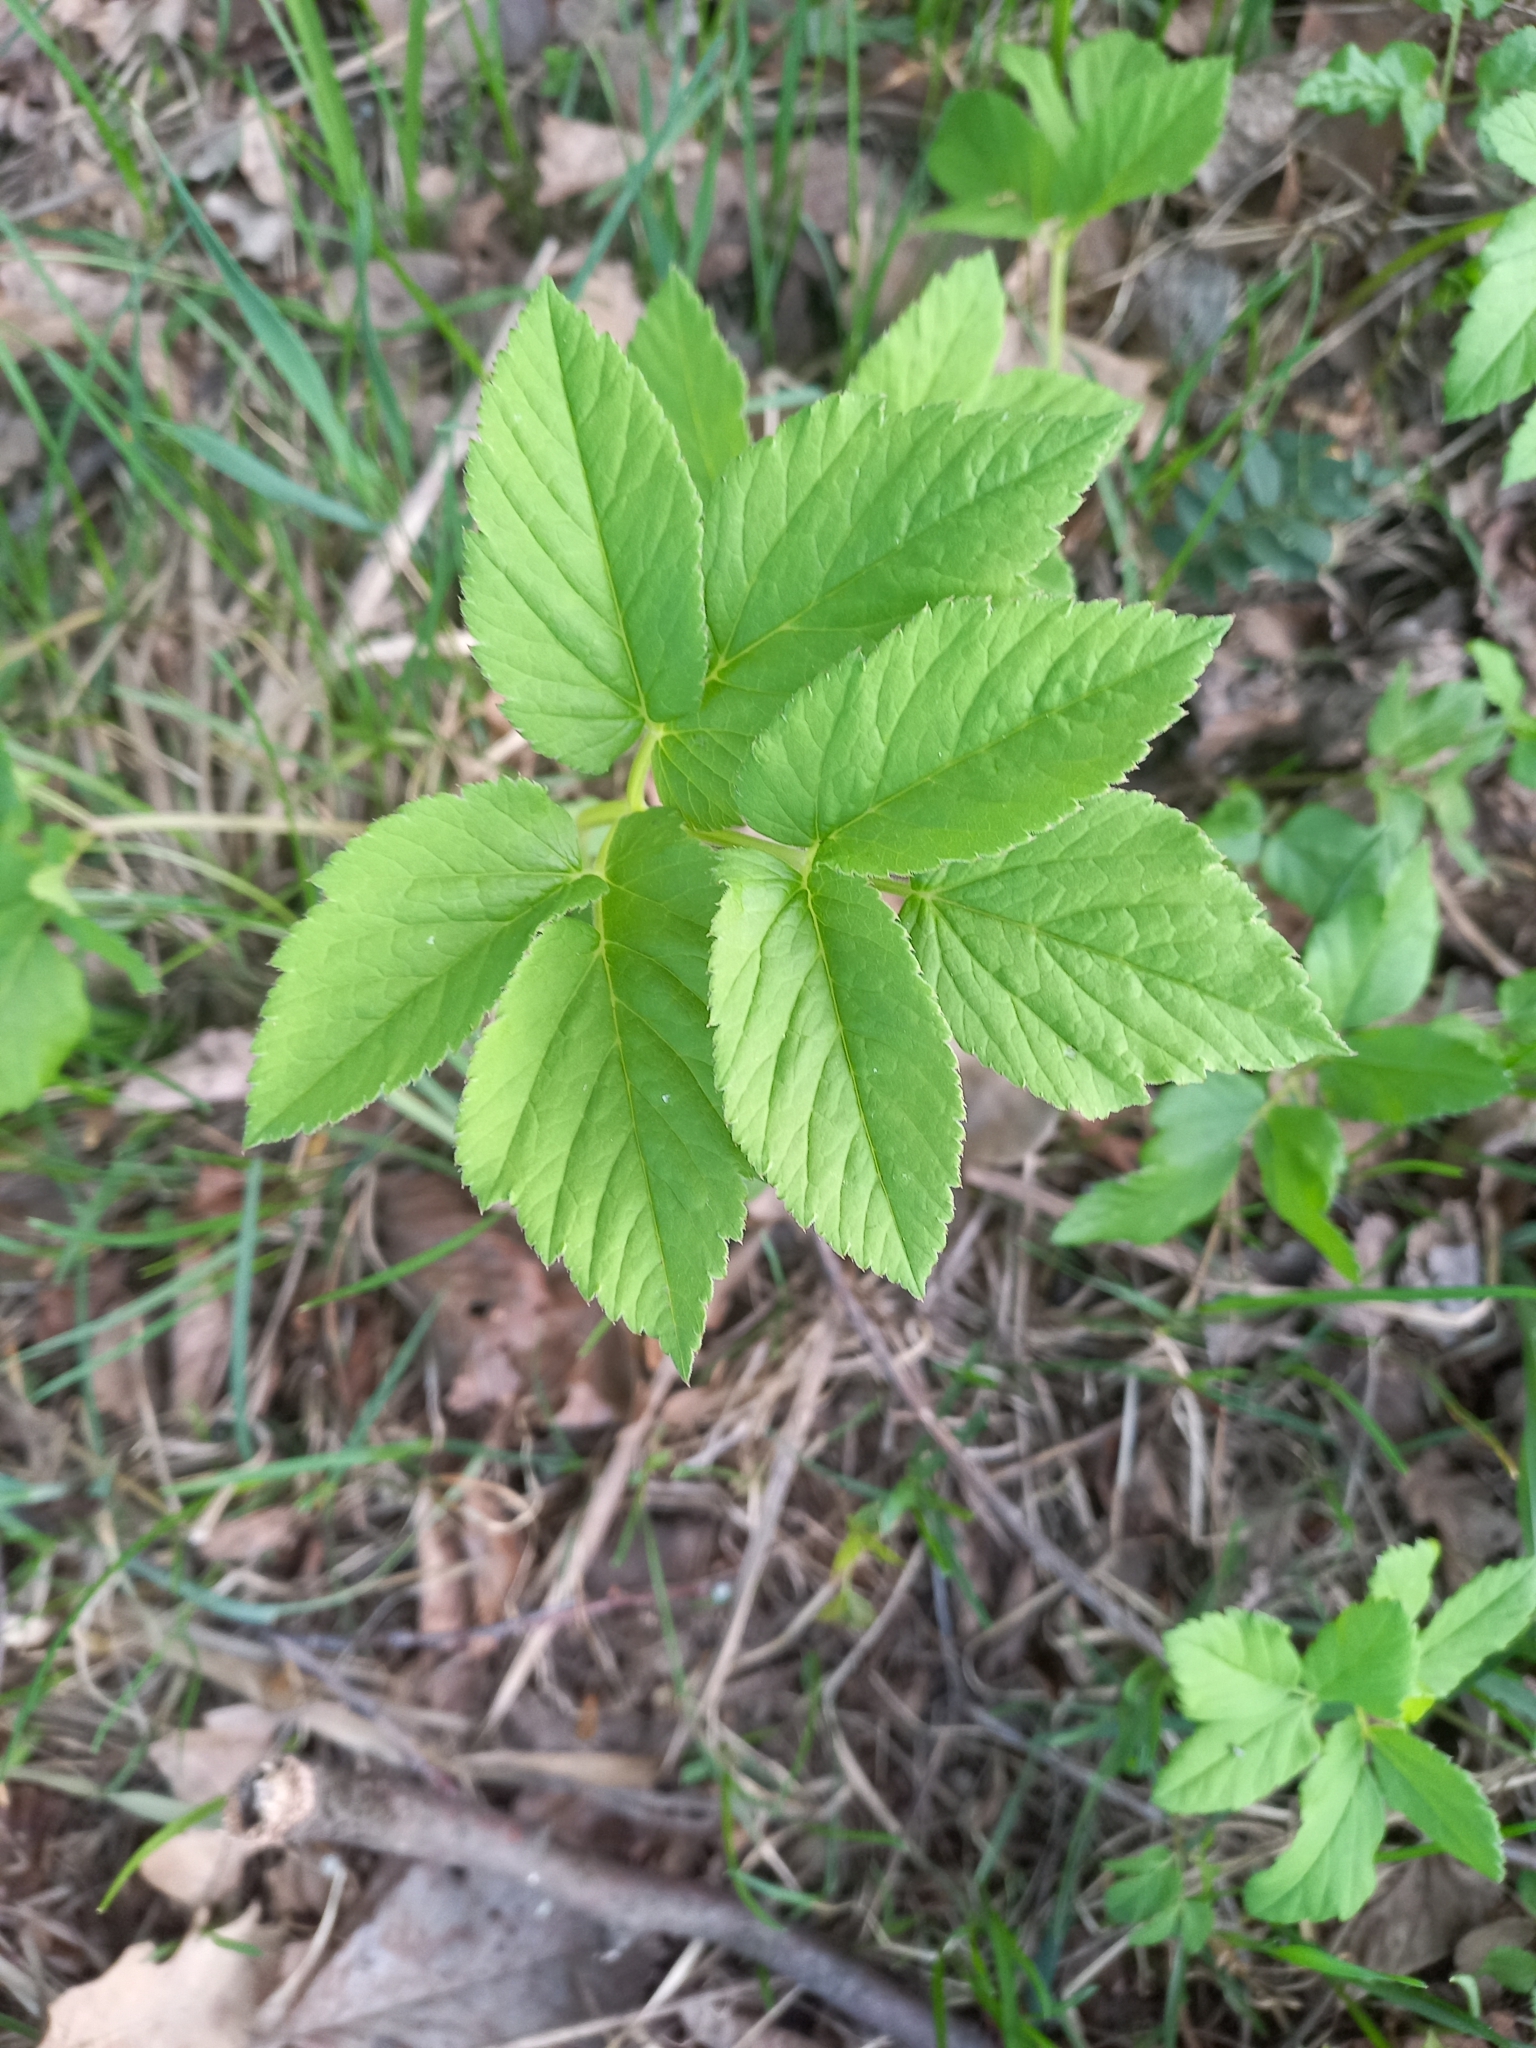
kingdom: Plantae
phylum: Tracheophyta
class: Magnoliopsida
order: Apiales
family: Apiaceae
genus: Aegopodium
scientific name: Aegopodium podagraria
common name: Ground-elder
